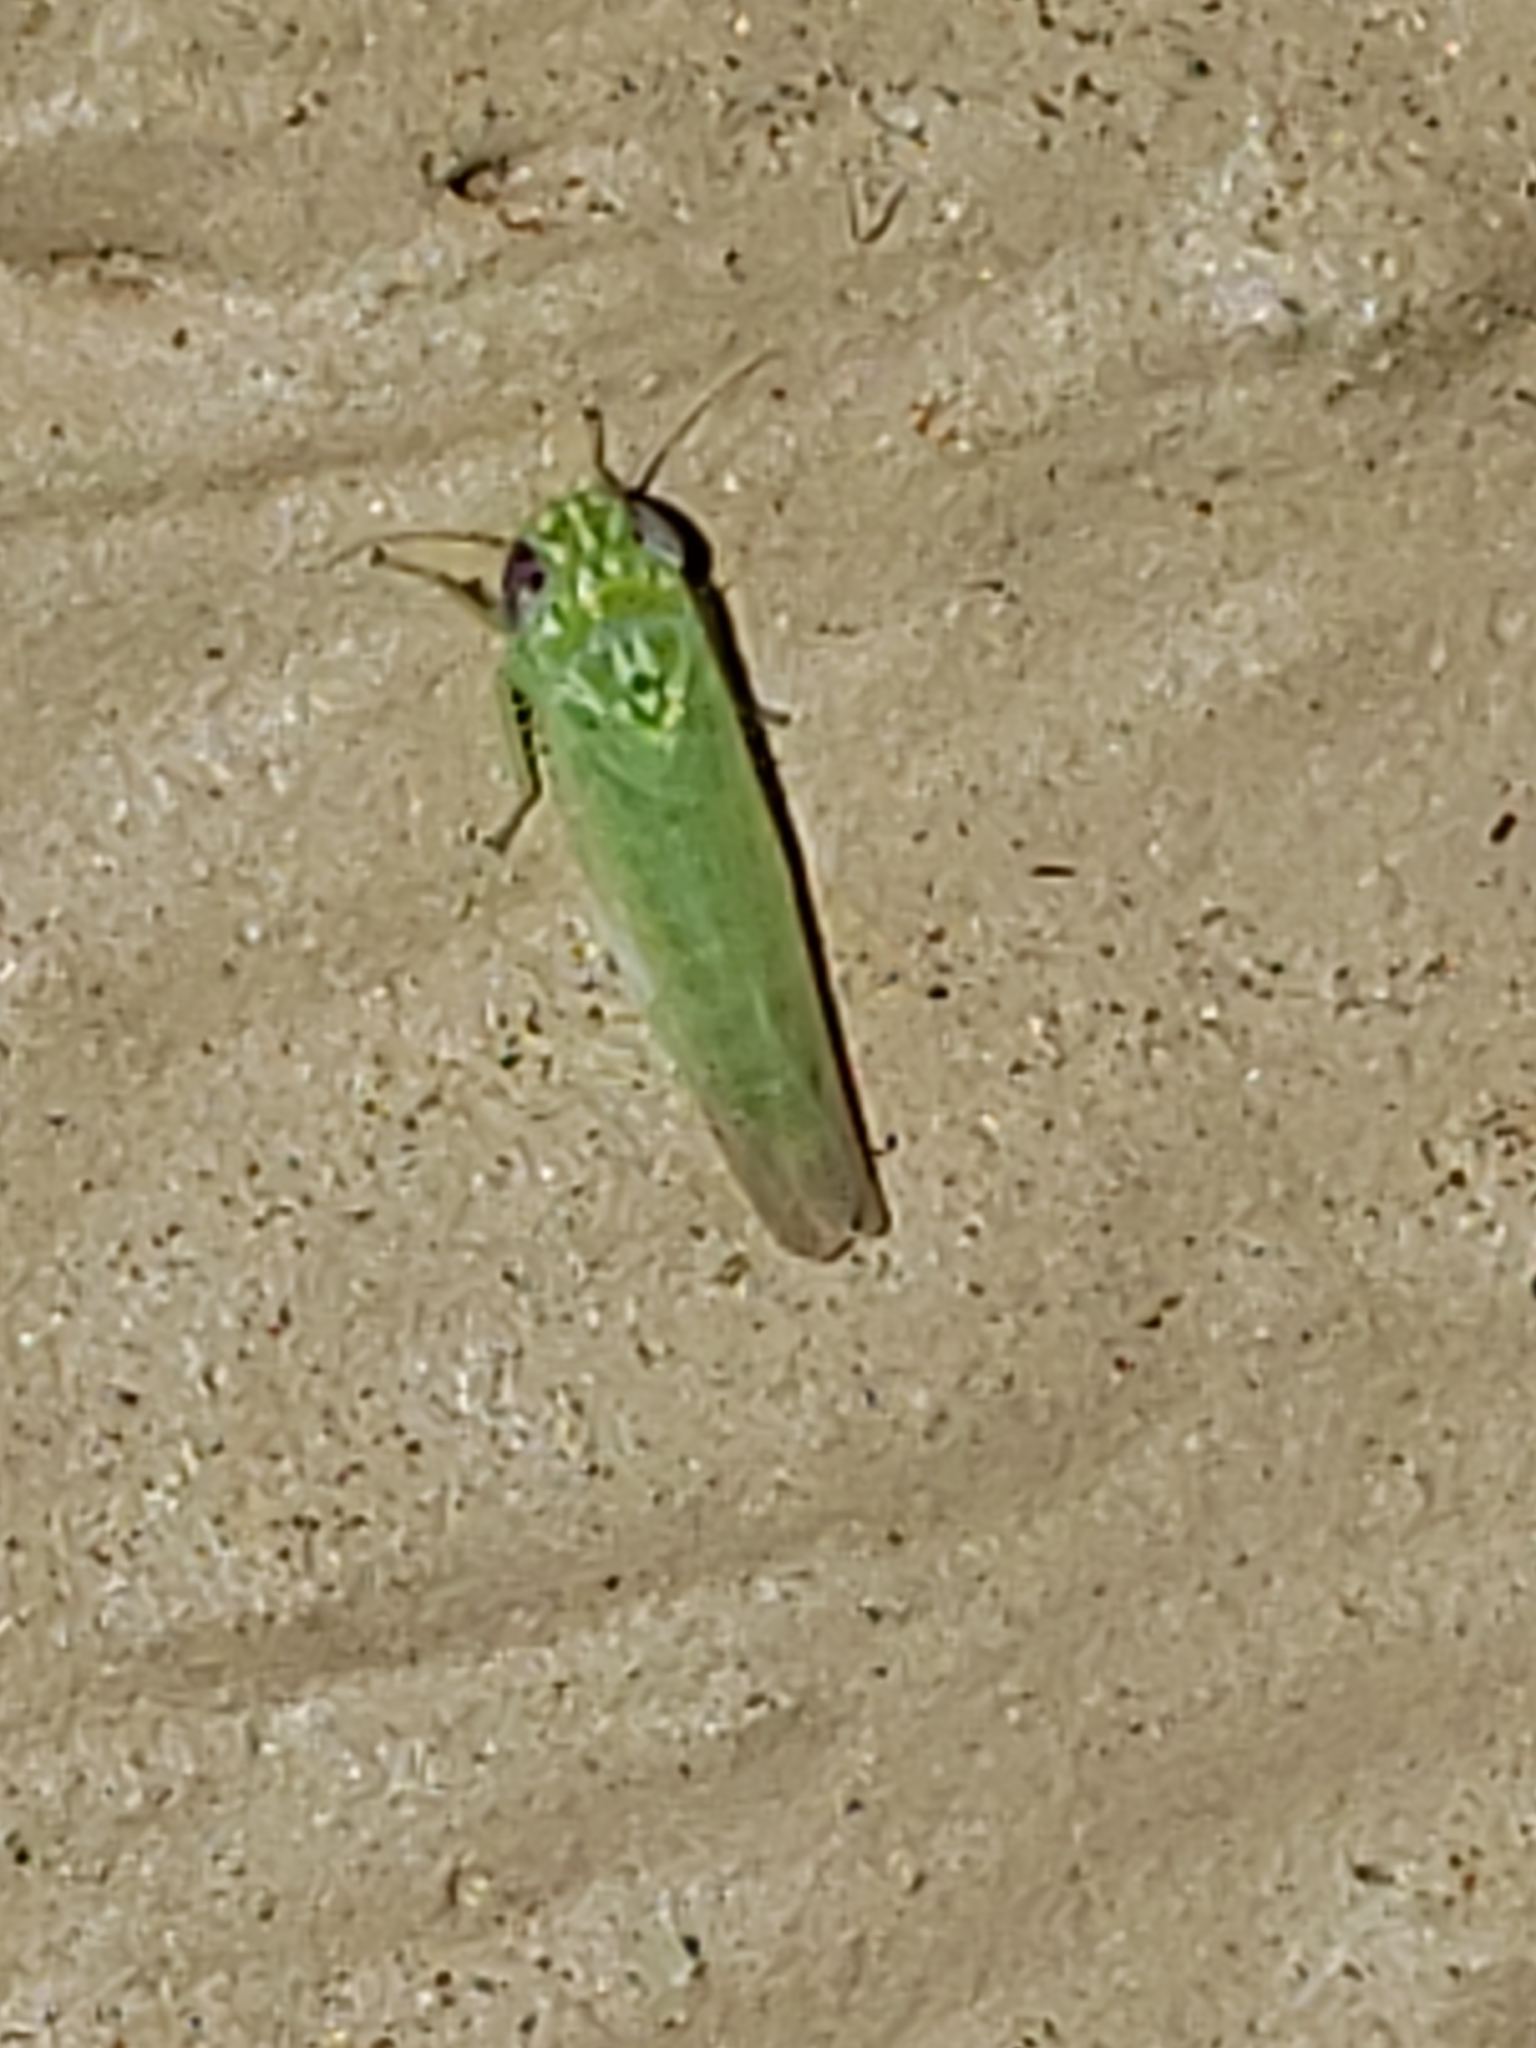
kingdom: Animalia
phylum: Arthropoda
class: Insecta
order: Hemiptera
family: Cicadellidae
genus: Empoasca
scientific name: Empoasca fabae
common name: Potato leafhopper
